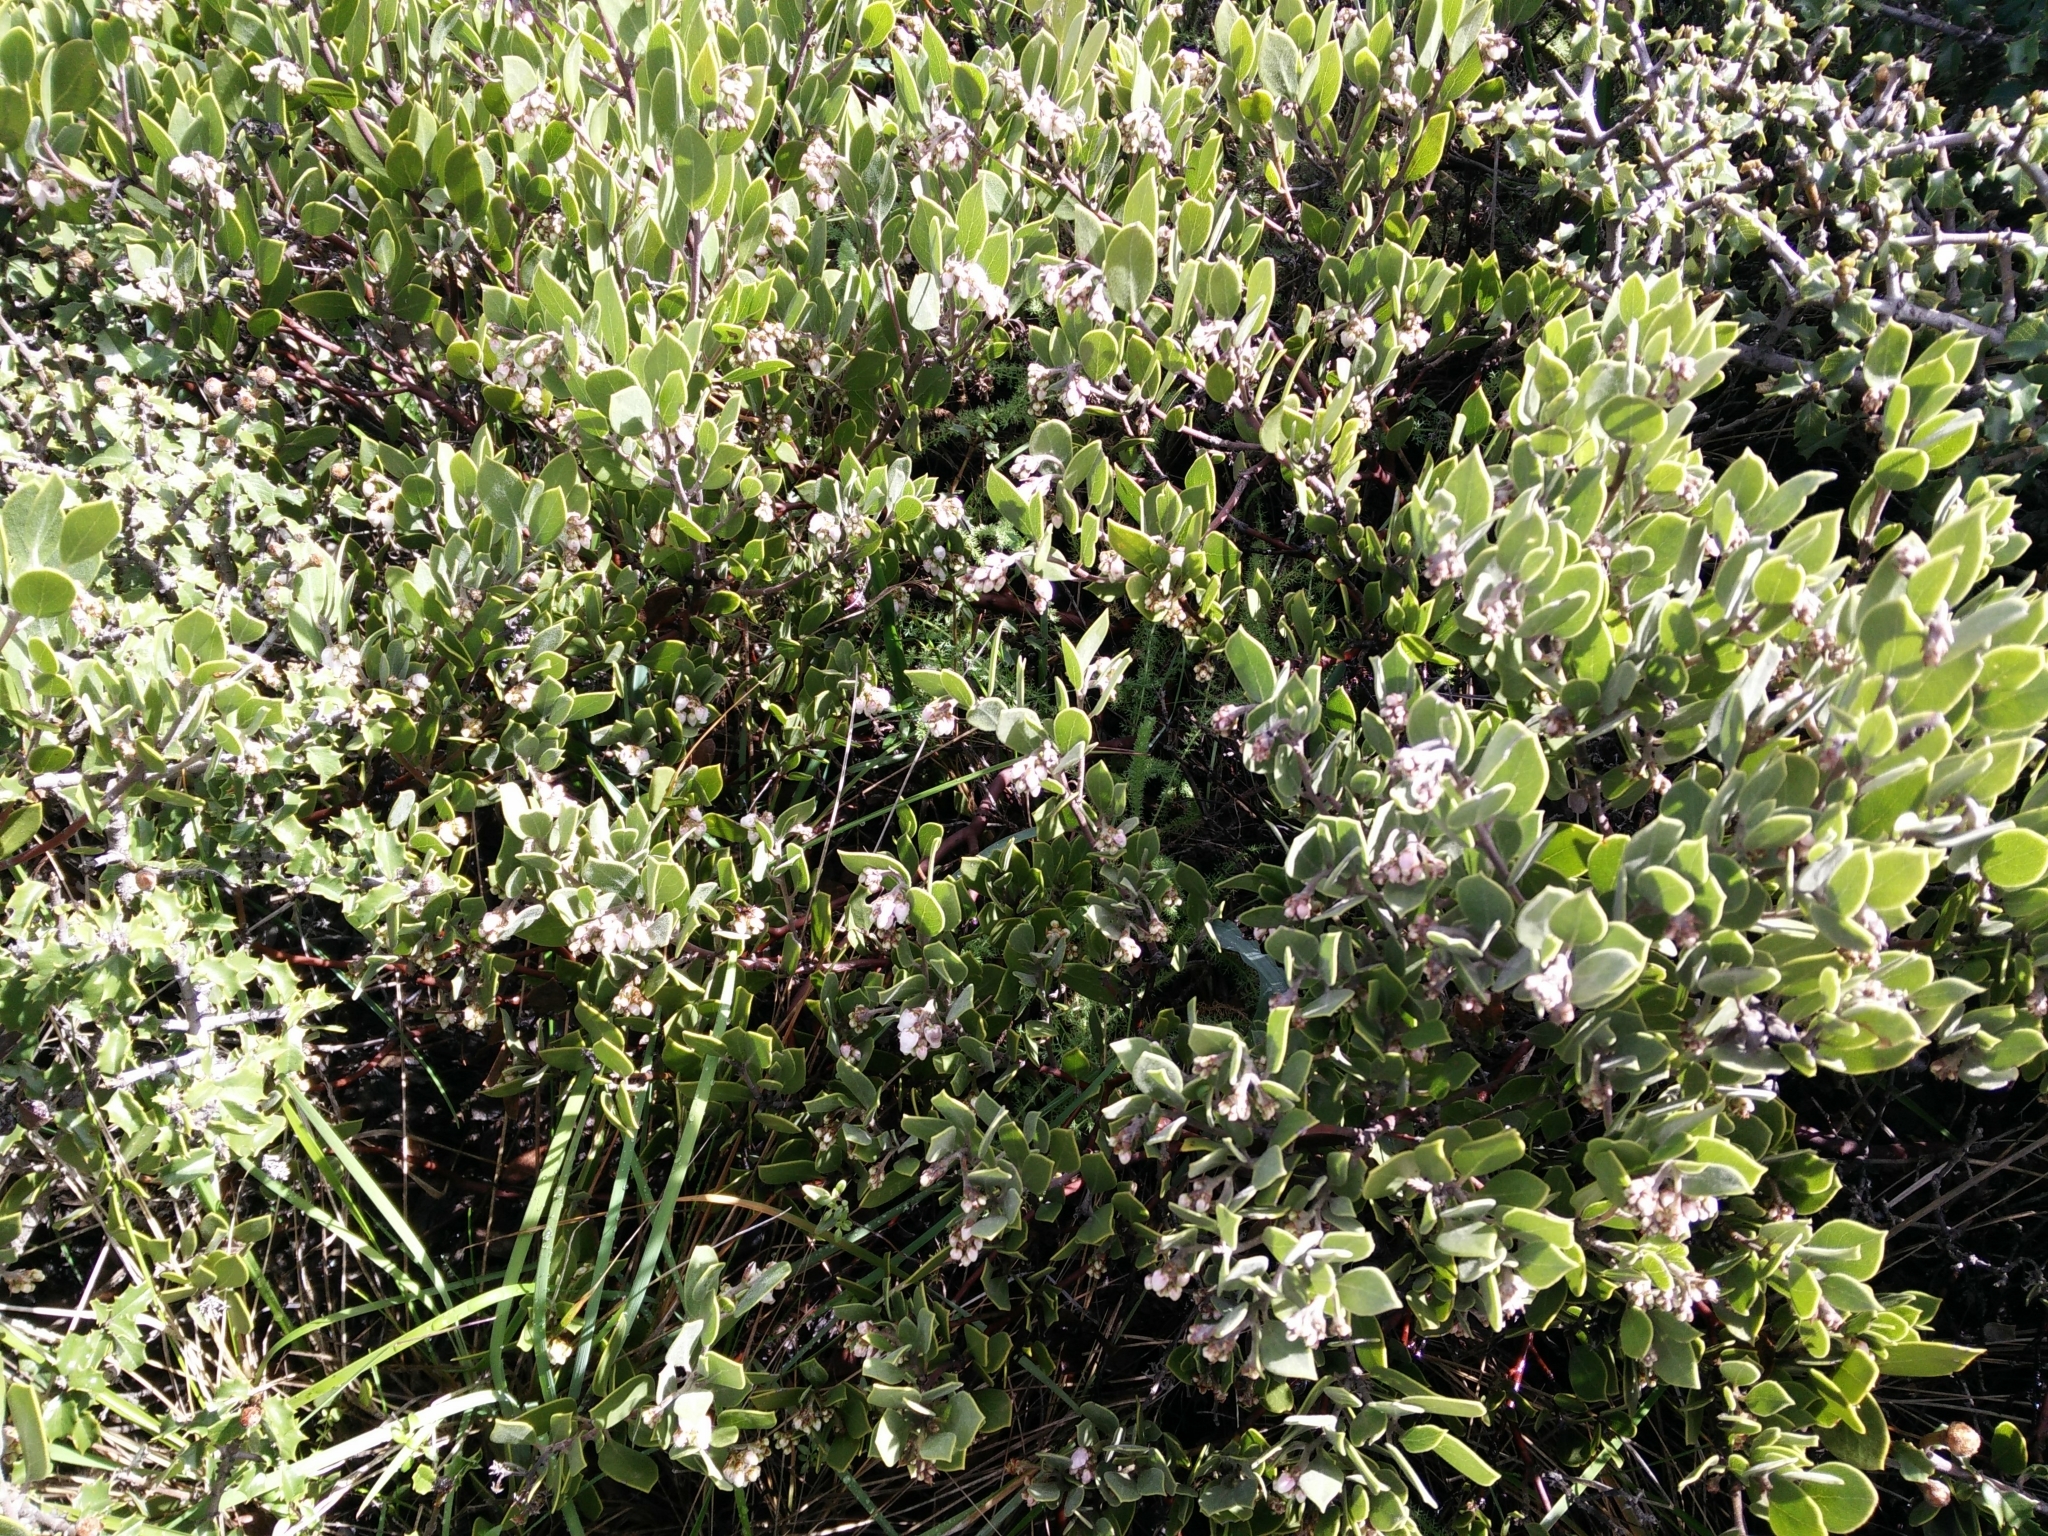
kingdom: Plantae
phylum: Tracheophyta
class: Magnoliopsida
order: Ericales
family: Ericaceae
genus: Arctostaphylos
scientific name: Arctostaphylos montana
